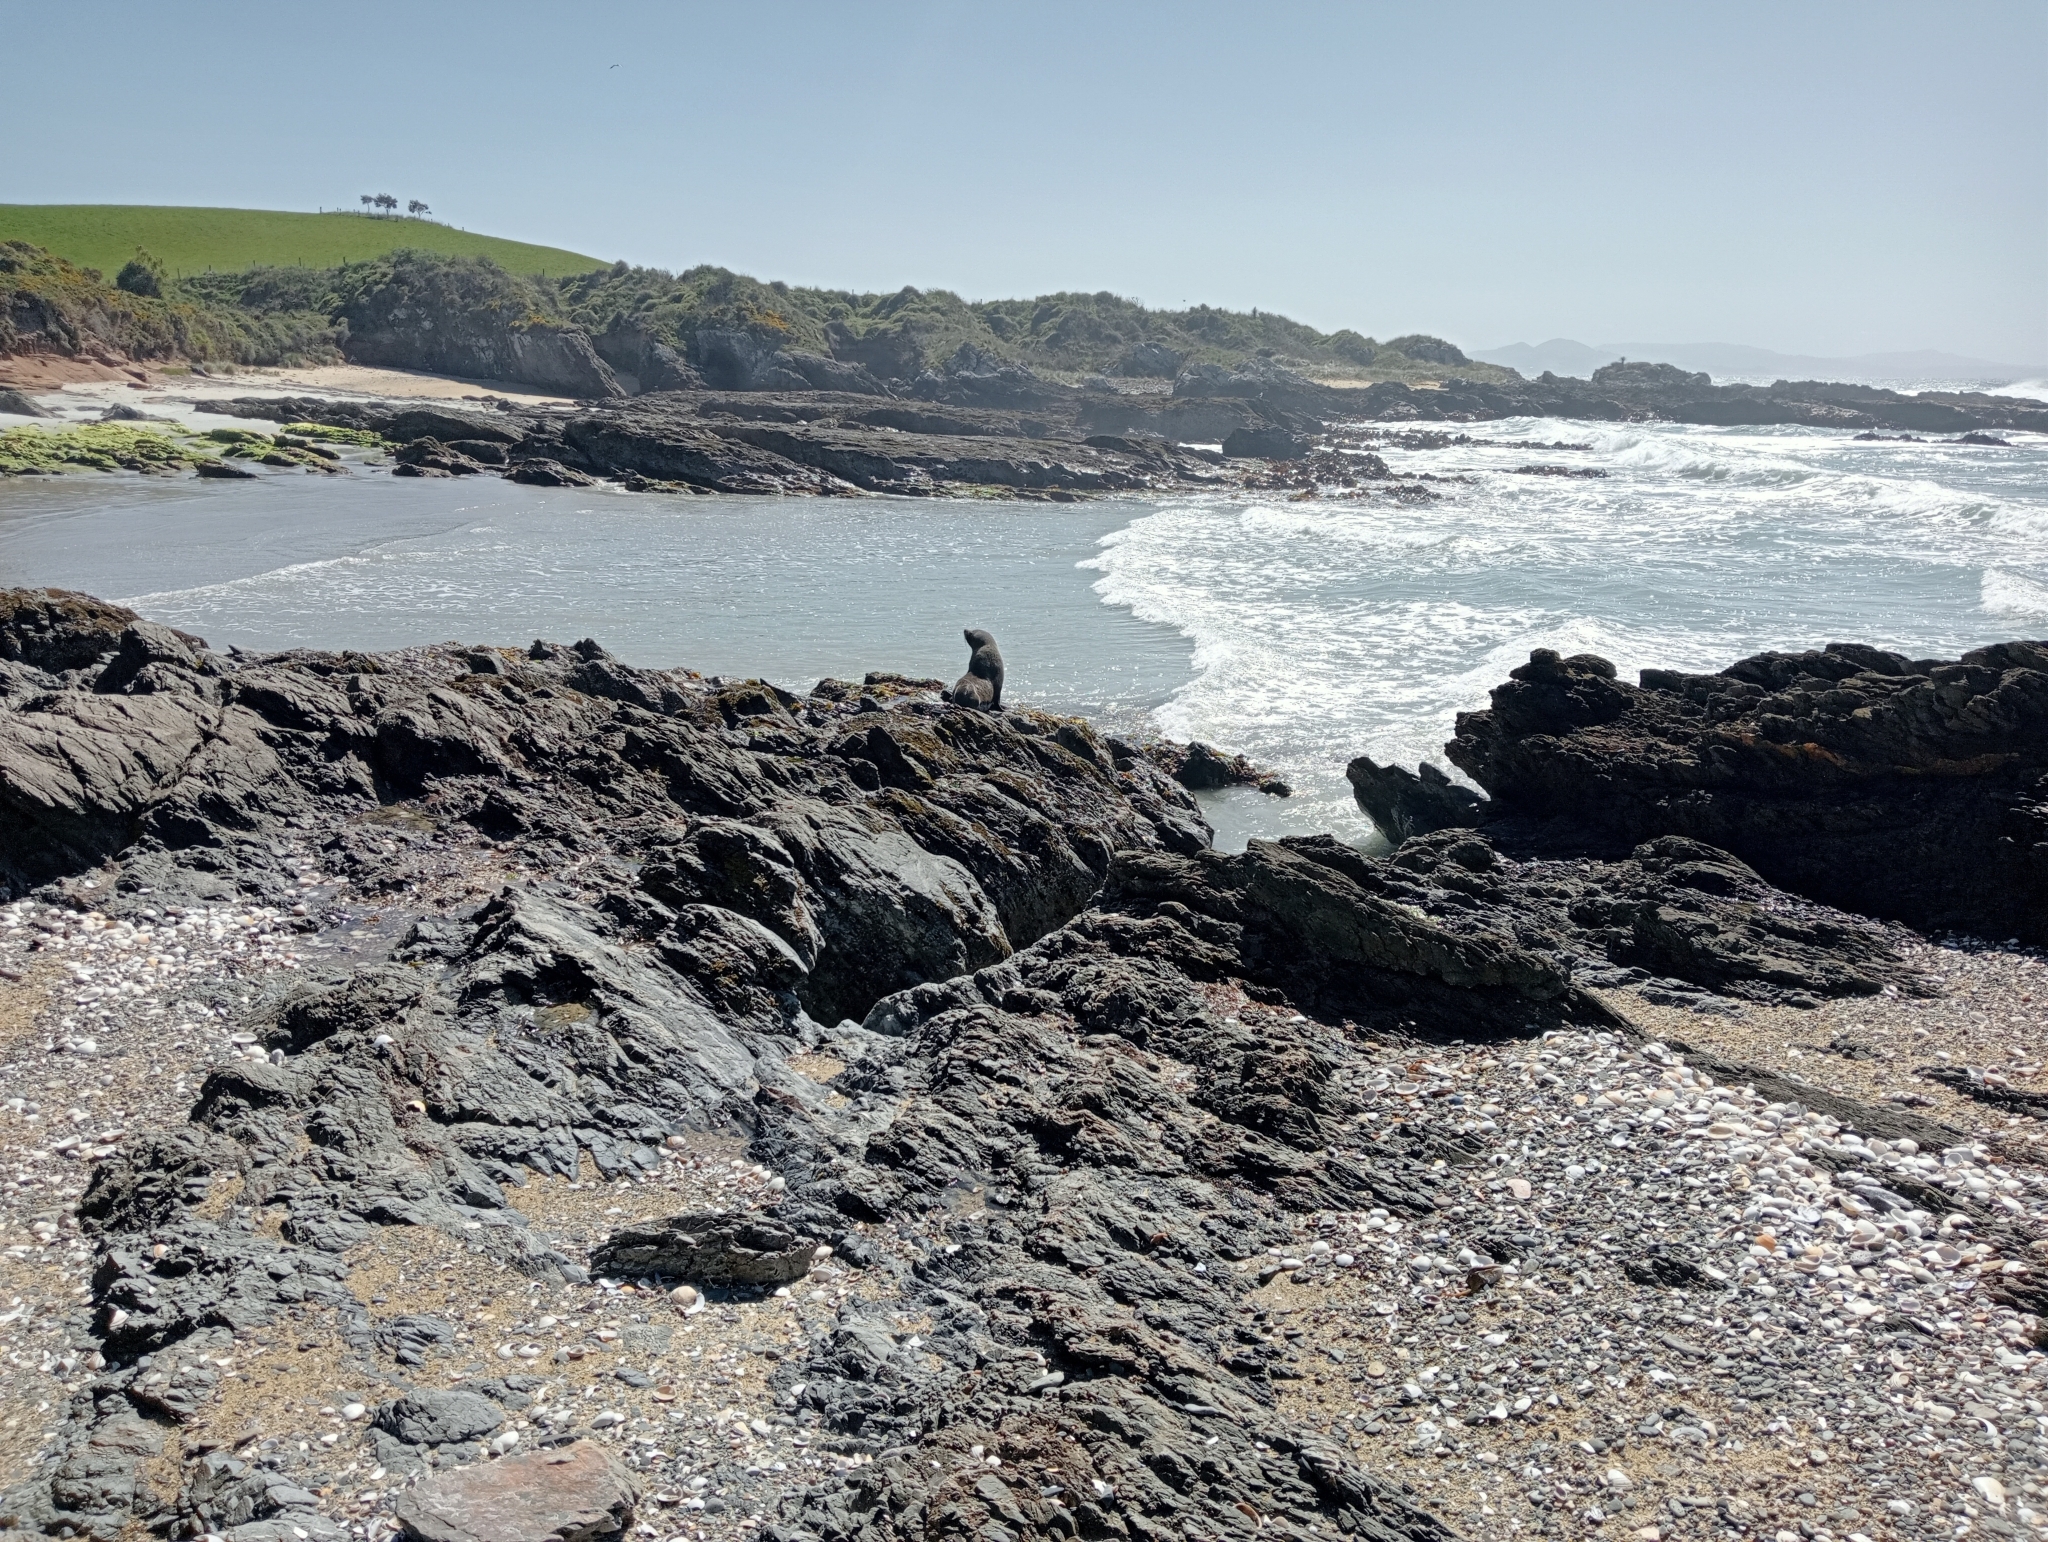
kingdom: Animalia
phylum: Chordata
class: Mammalia
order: Carnivora
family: Otariidae
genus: Arctocephalus
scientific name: Arctocephalus forsteri
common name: New zealand fur seal
